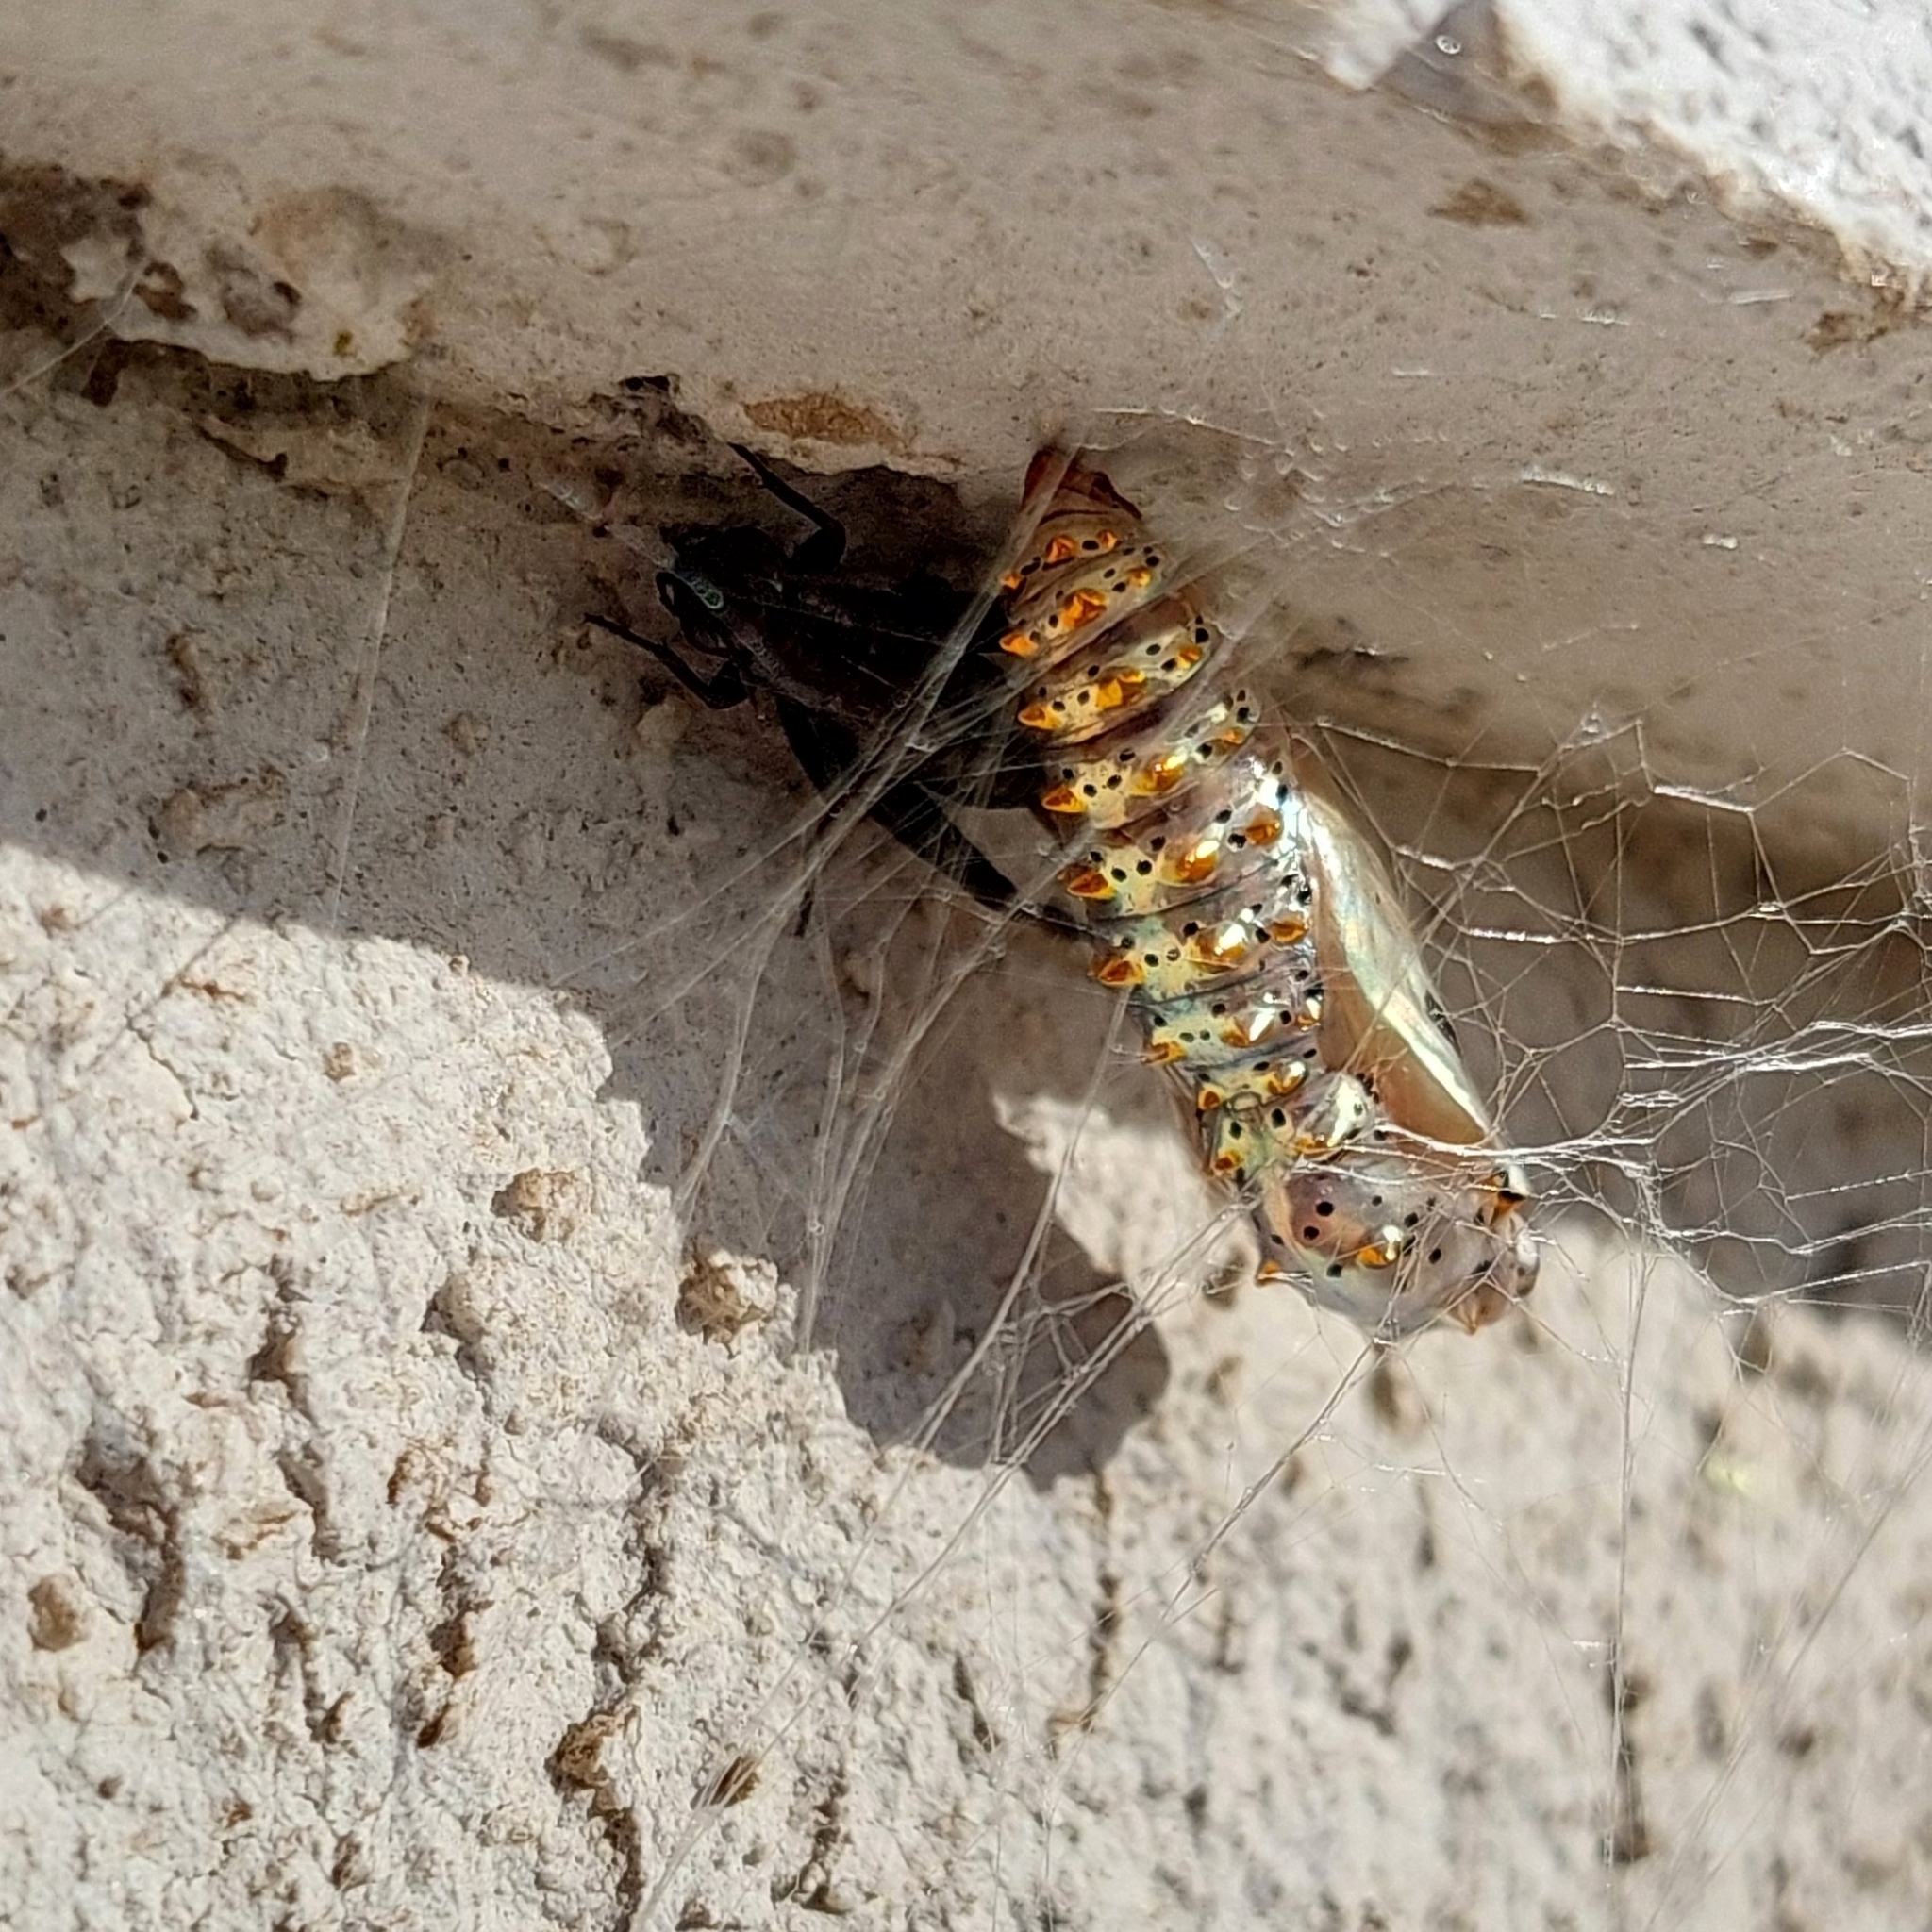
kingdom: Animalia
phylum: Arthropoda
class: Insecta
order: Lepidoptera
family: Nymphalidae
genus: Euptoieta
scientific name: Euptoieta hortensia
